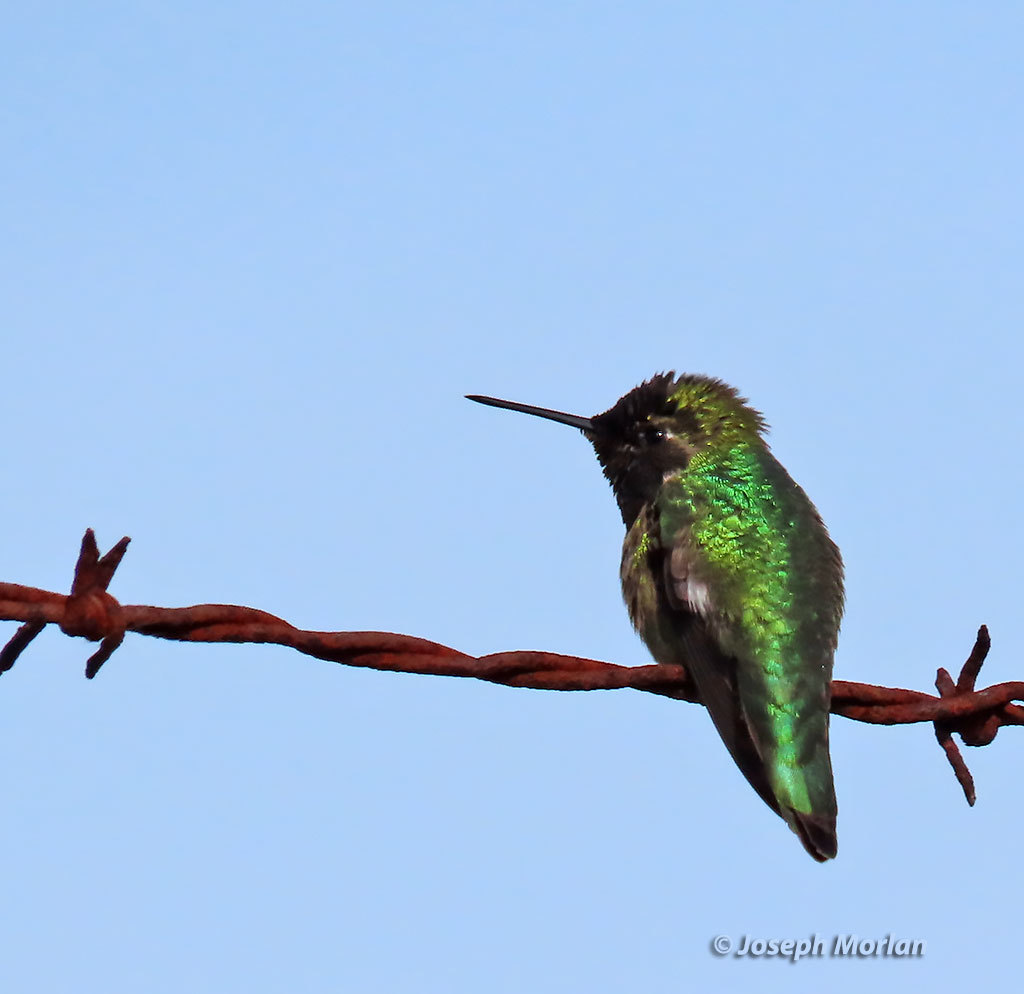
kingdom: Animalia
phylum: Chordata
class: Aves
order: Apodiformes
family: Trochilidae
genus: Calypte
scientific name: Calypte anna
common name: Anna's hummingbird
